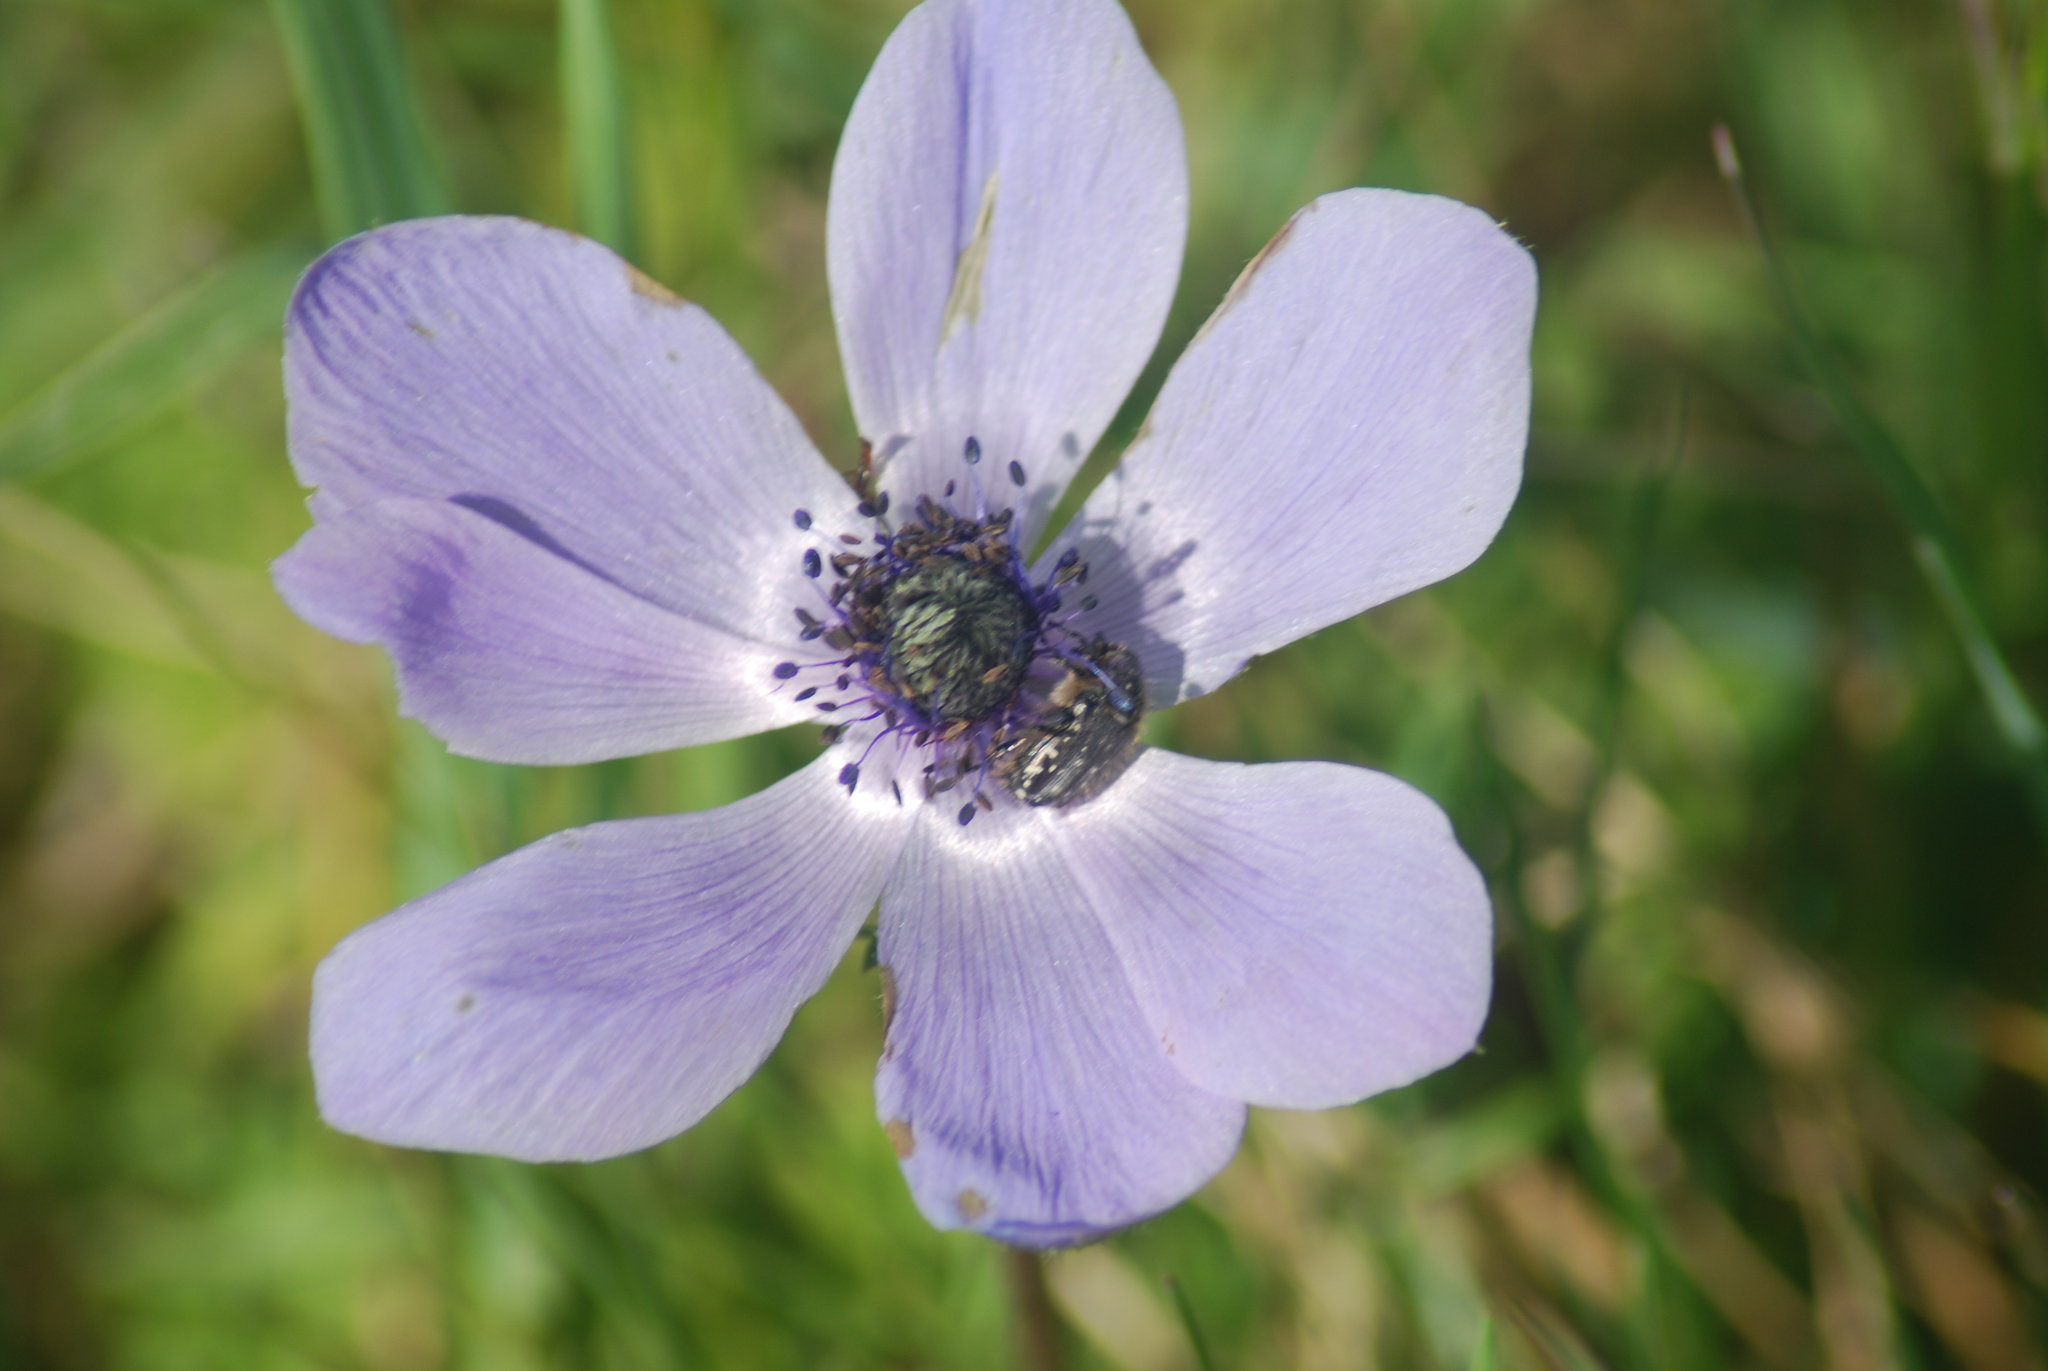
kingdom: Plantae
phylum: Tracheophyta
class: Magnoliopsida
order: Ranunculales
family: Ranunculaceae
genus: Anemone
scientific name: Anemone coronaria
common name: Poppy anemone
